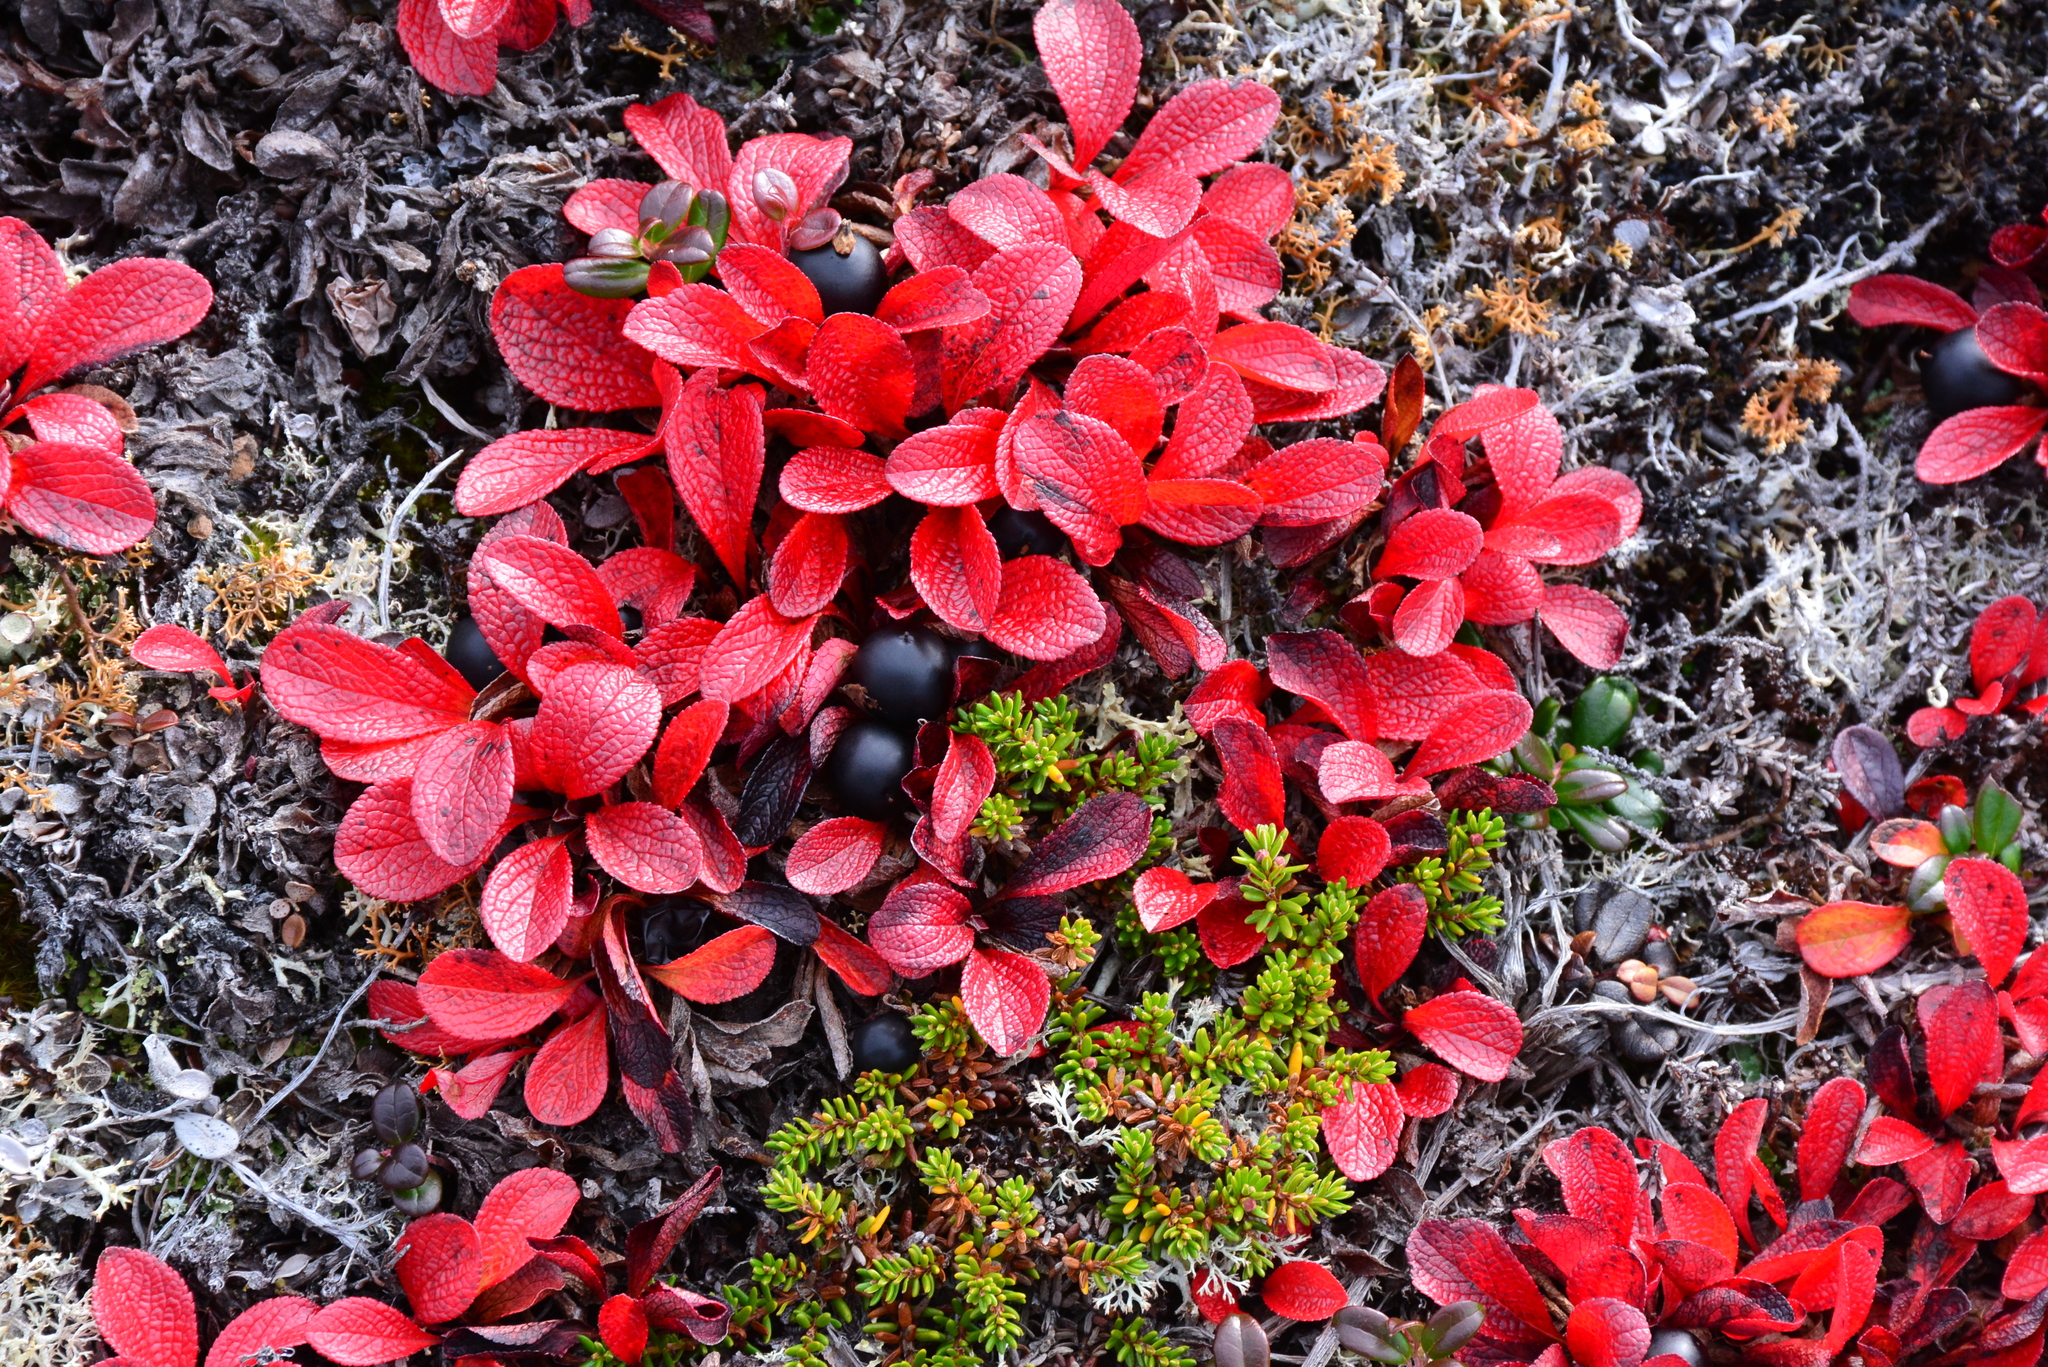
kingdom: Plantae
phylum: Tracheophyta
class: Magnoliopsida
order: Ericales
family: Ericaceae
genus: Arctostaphylos
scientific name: Arctostaphylos alpinus
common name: Alpine bearberry
